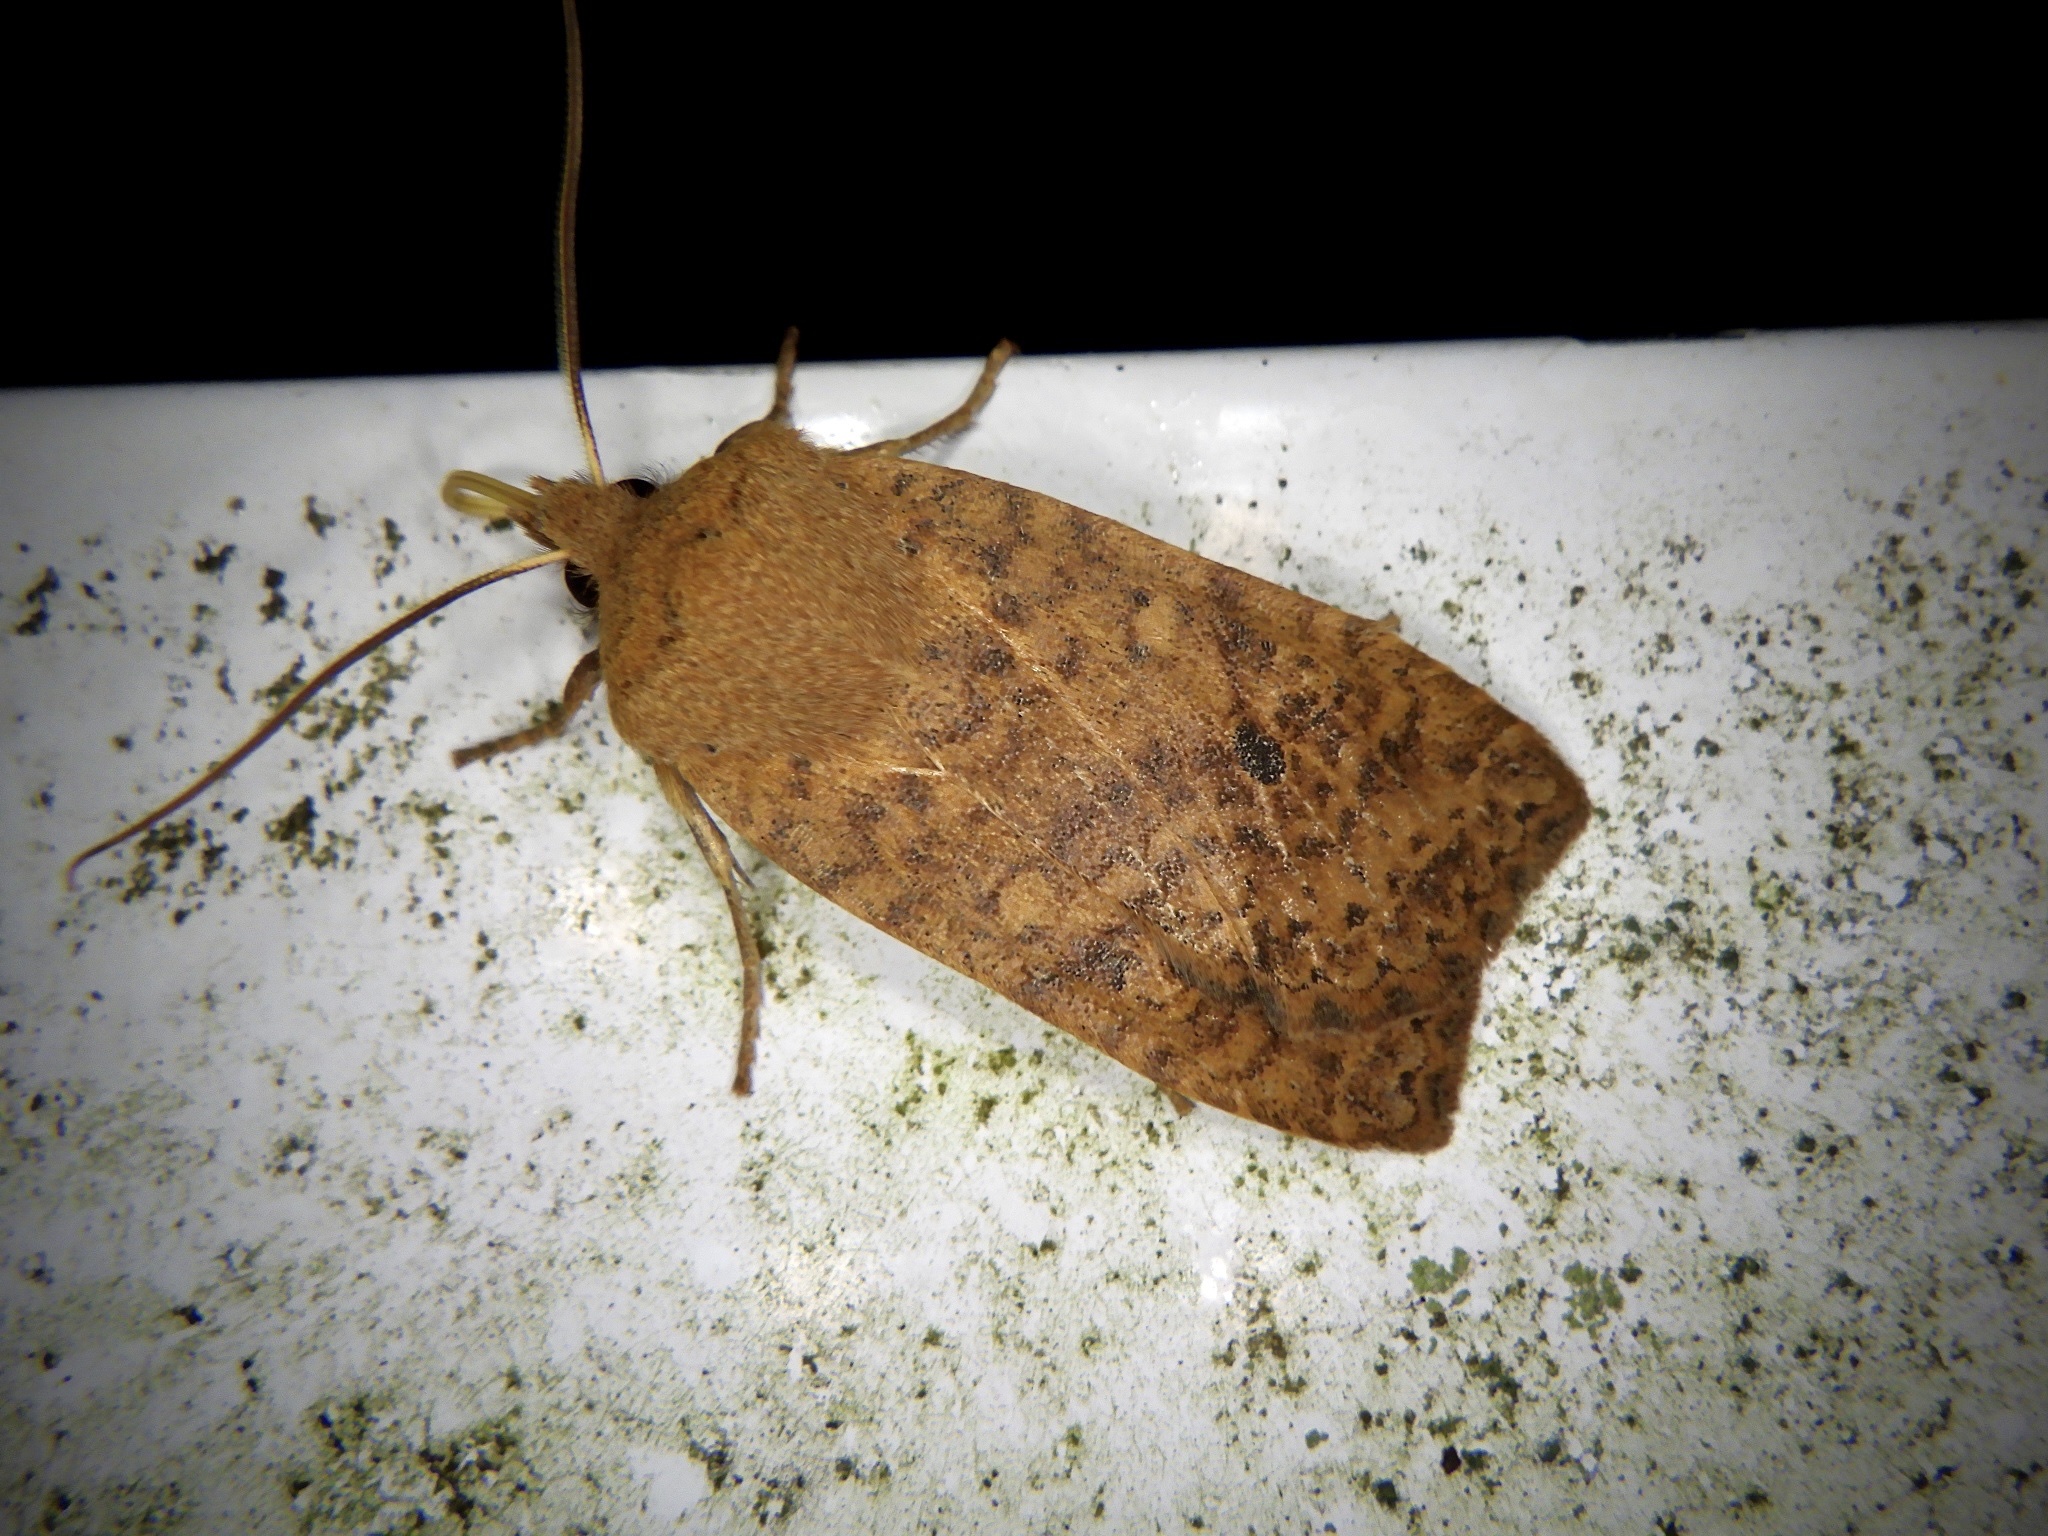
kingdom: Animalia
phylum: Arthropoda
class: Insecta
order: Lepidoptera
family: Noctuidae
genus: Conistra
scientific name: Conistra albipuncta
